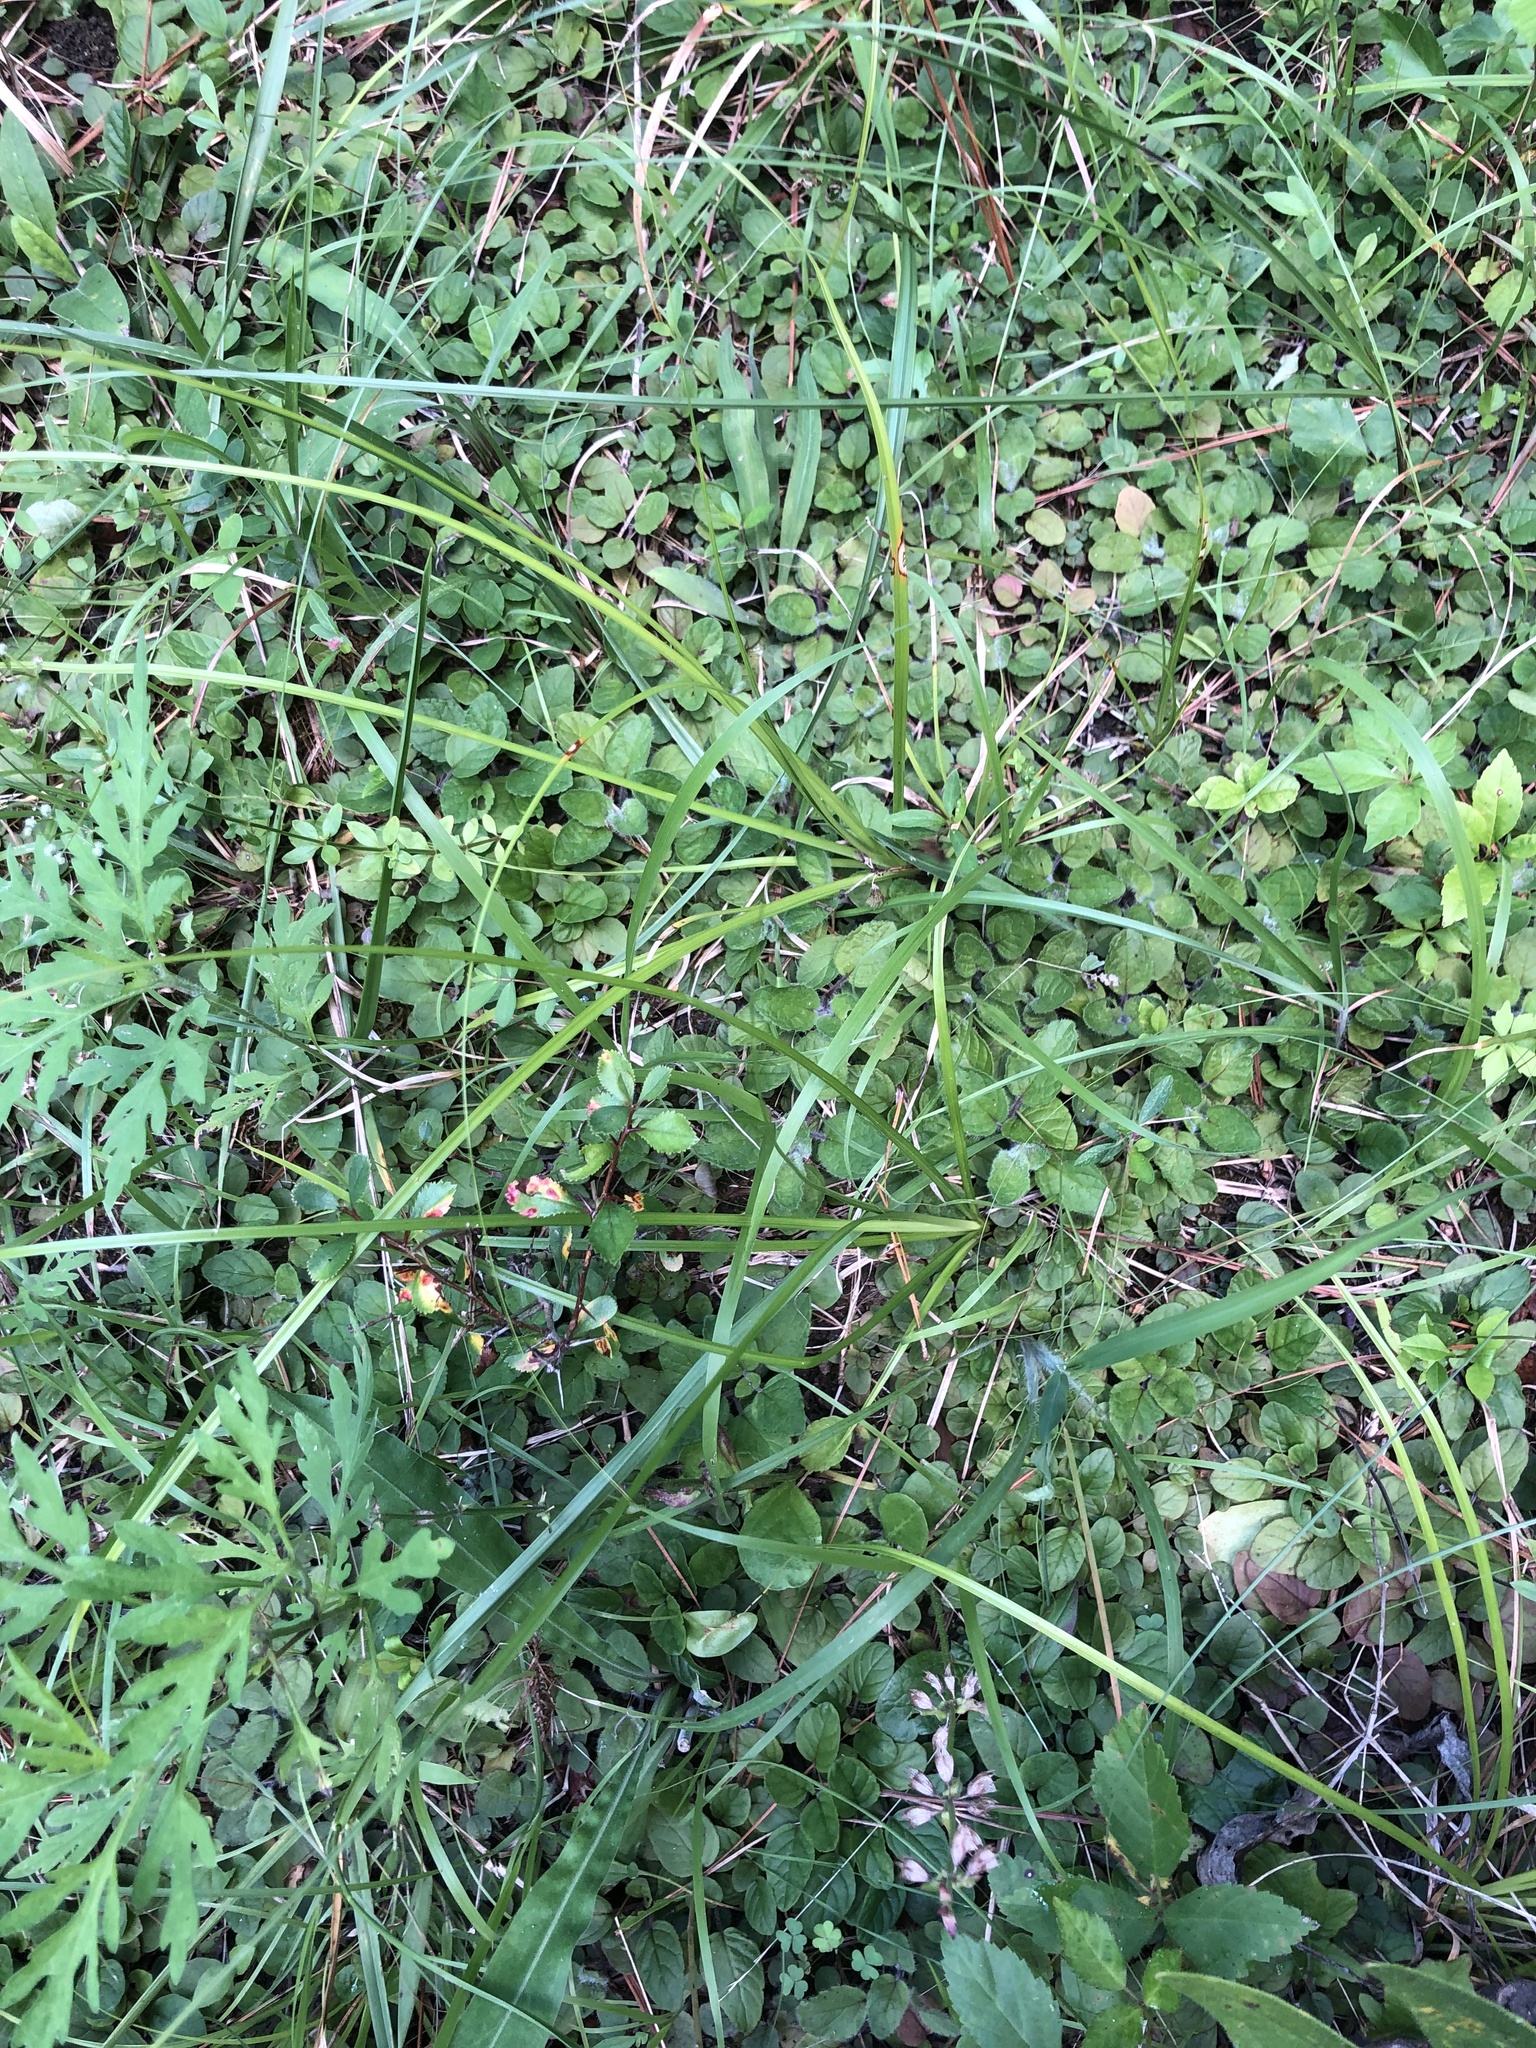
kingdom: Plantae
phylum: Tracheophyta
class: Magnoliopsida
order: Lamiales
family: Lamiaceae
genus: Blephilia
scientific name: Blephilia ciliata
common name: Downy blephilia
